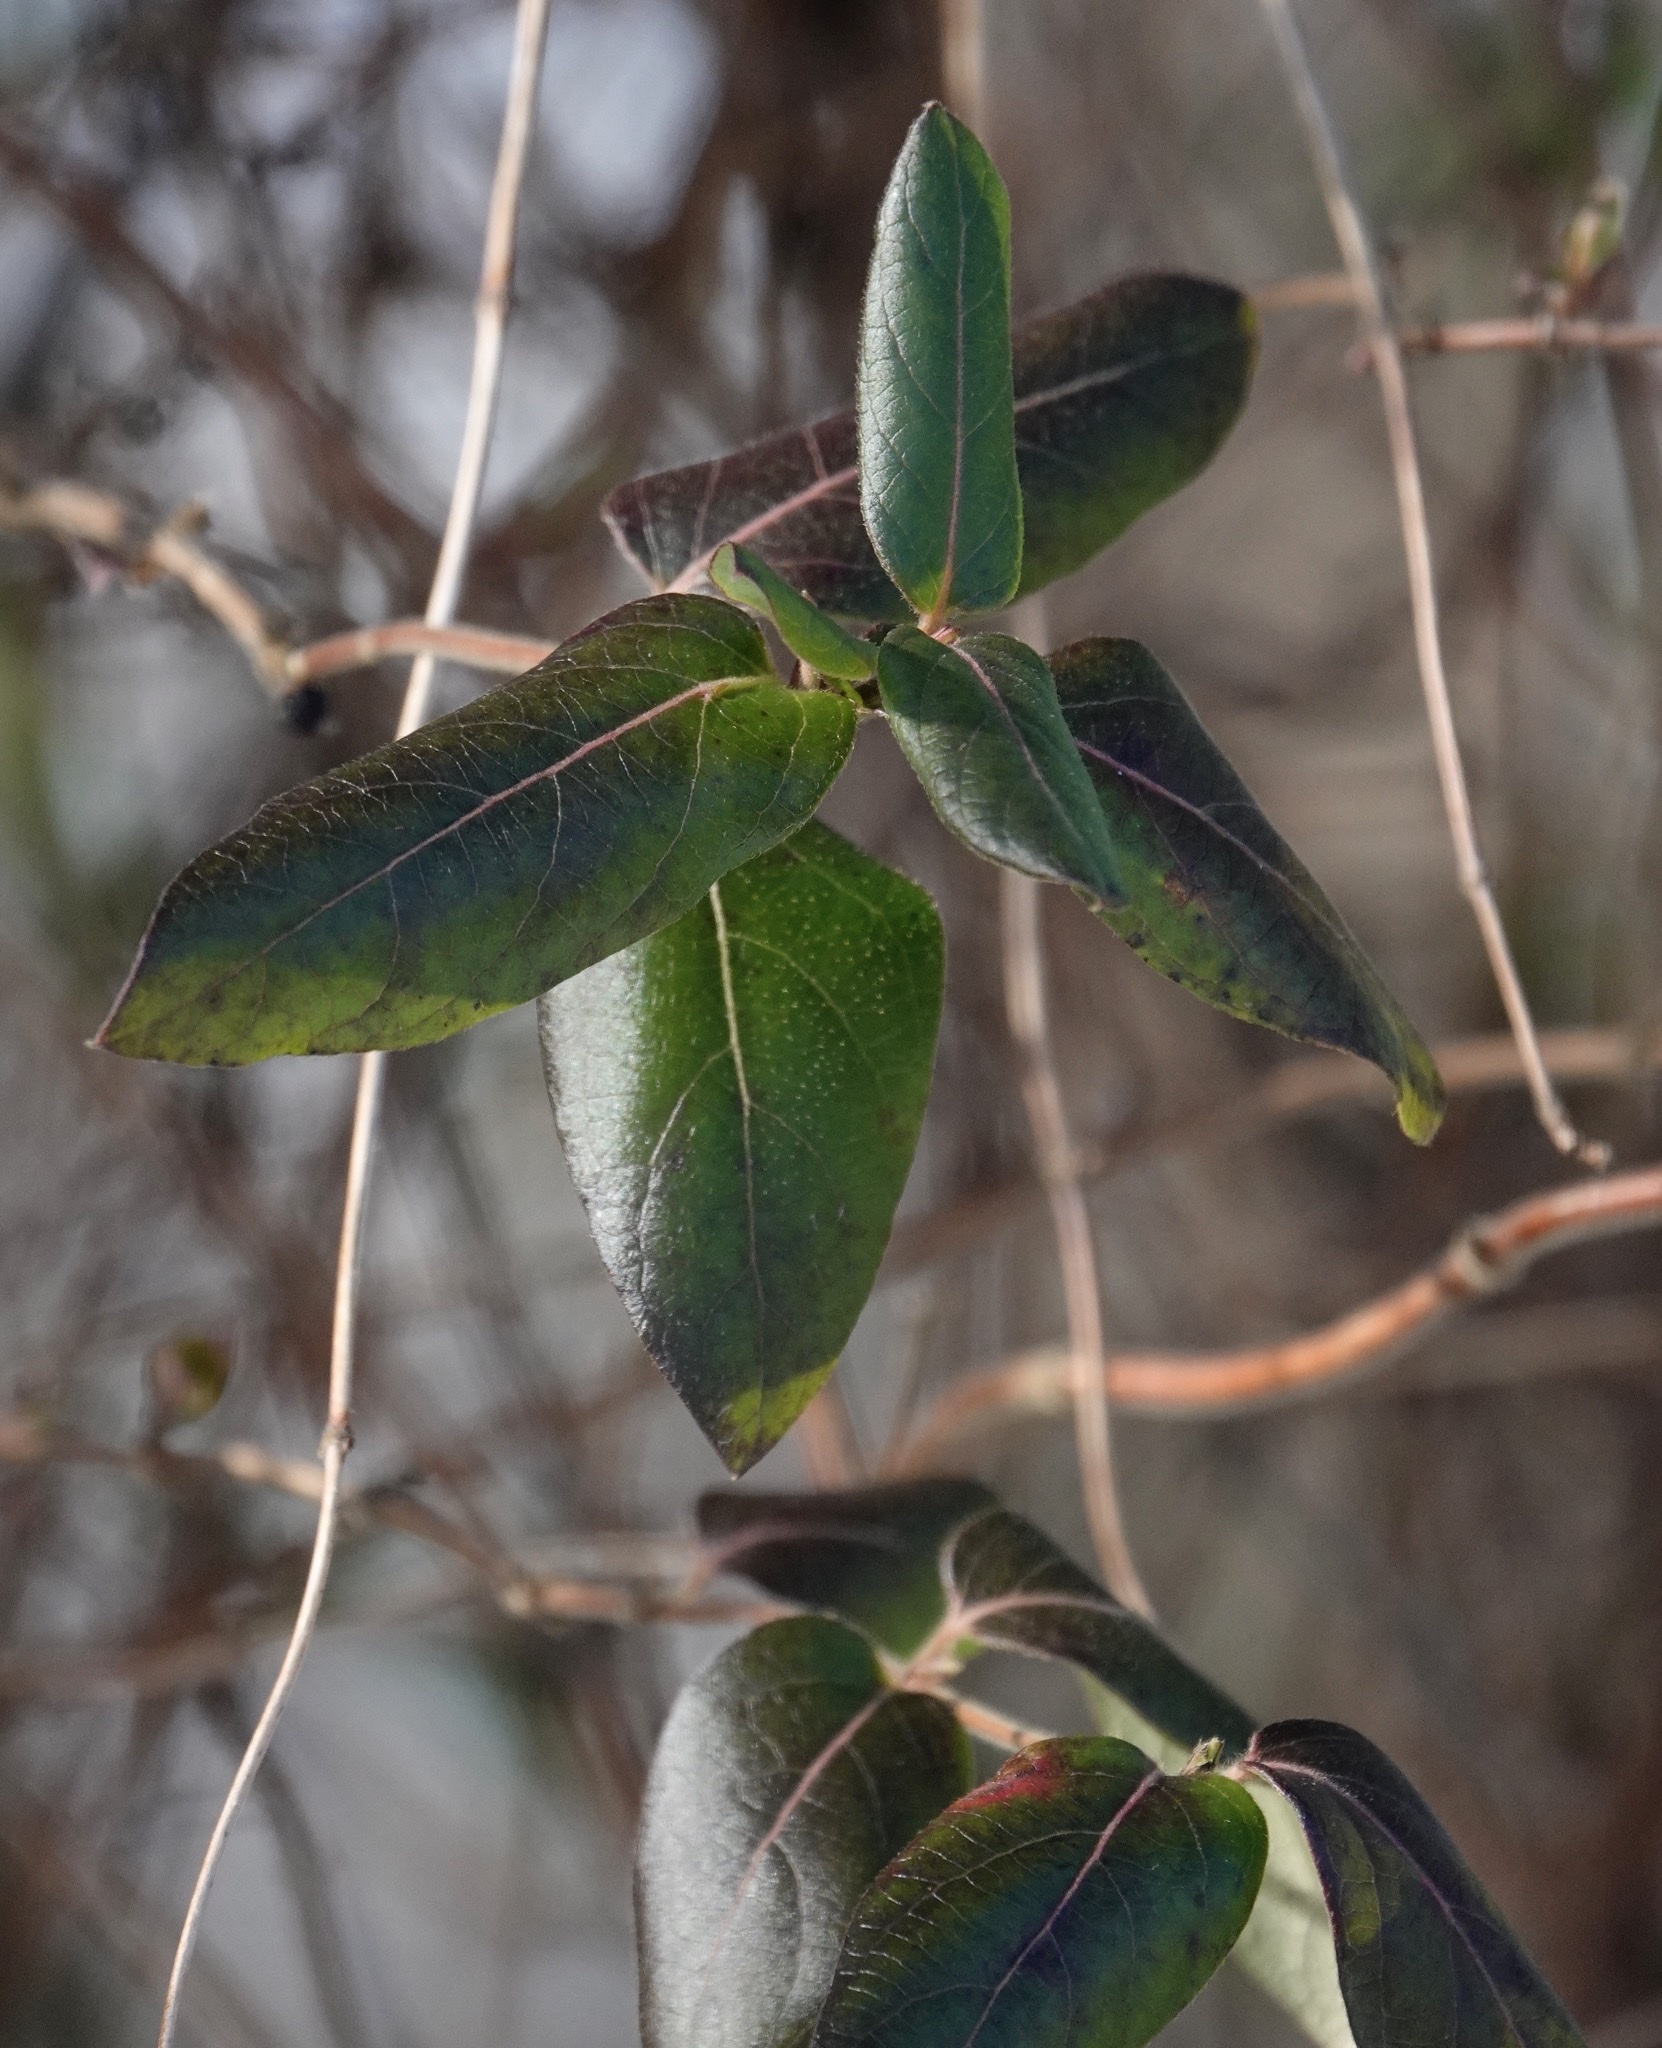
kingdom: Plantae
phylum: Tracheophyta
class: Magnoliopsida
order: Dipsacales
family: Caprifoliaceae
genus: Lonicera
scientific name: Lonicera japonica
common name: Japanese honeysuckle
